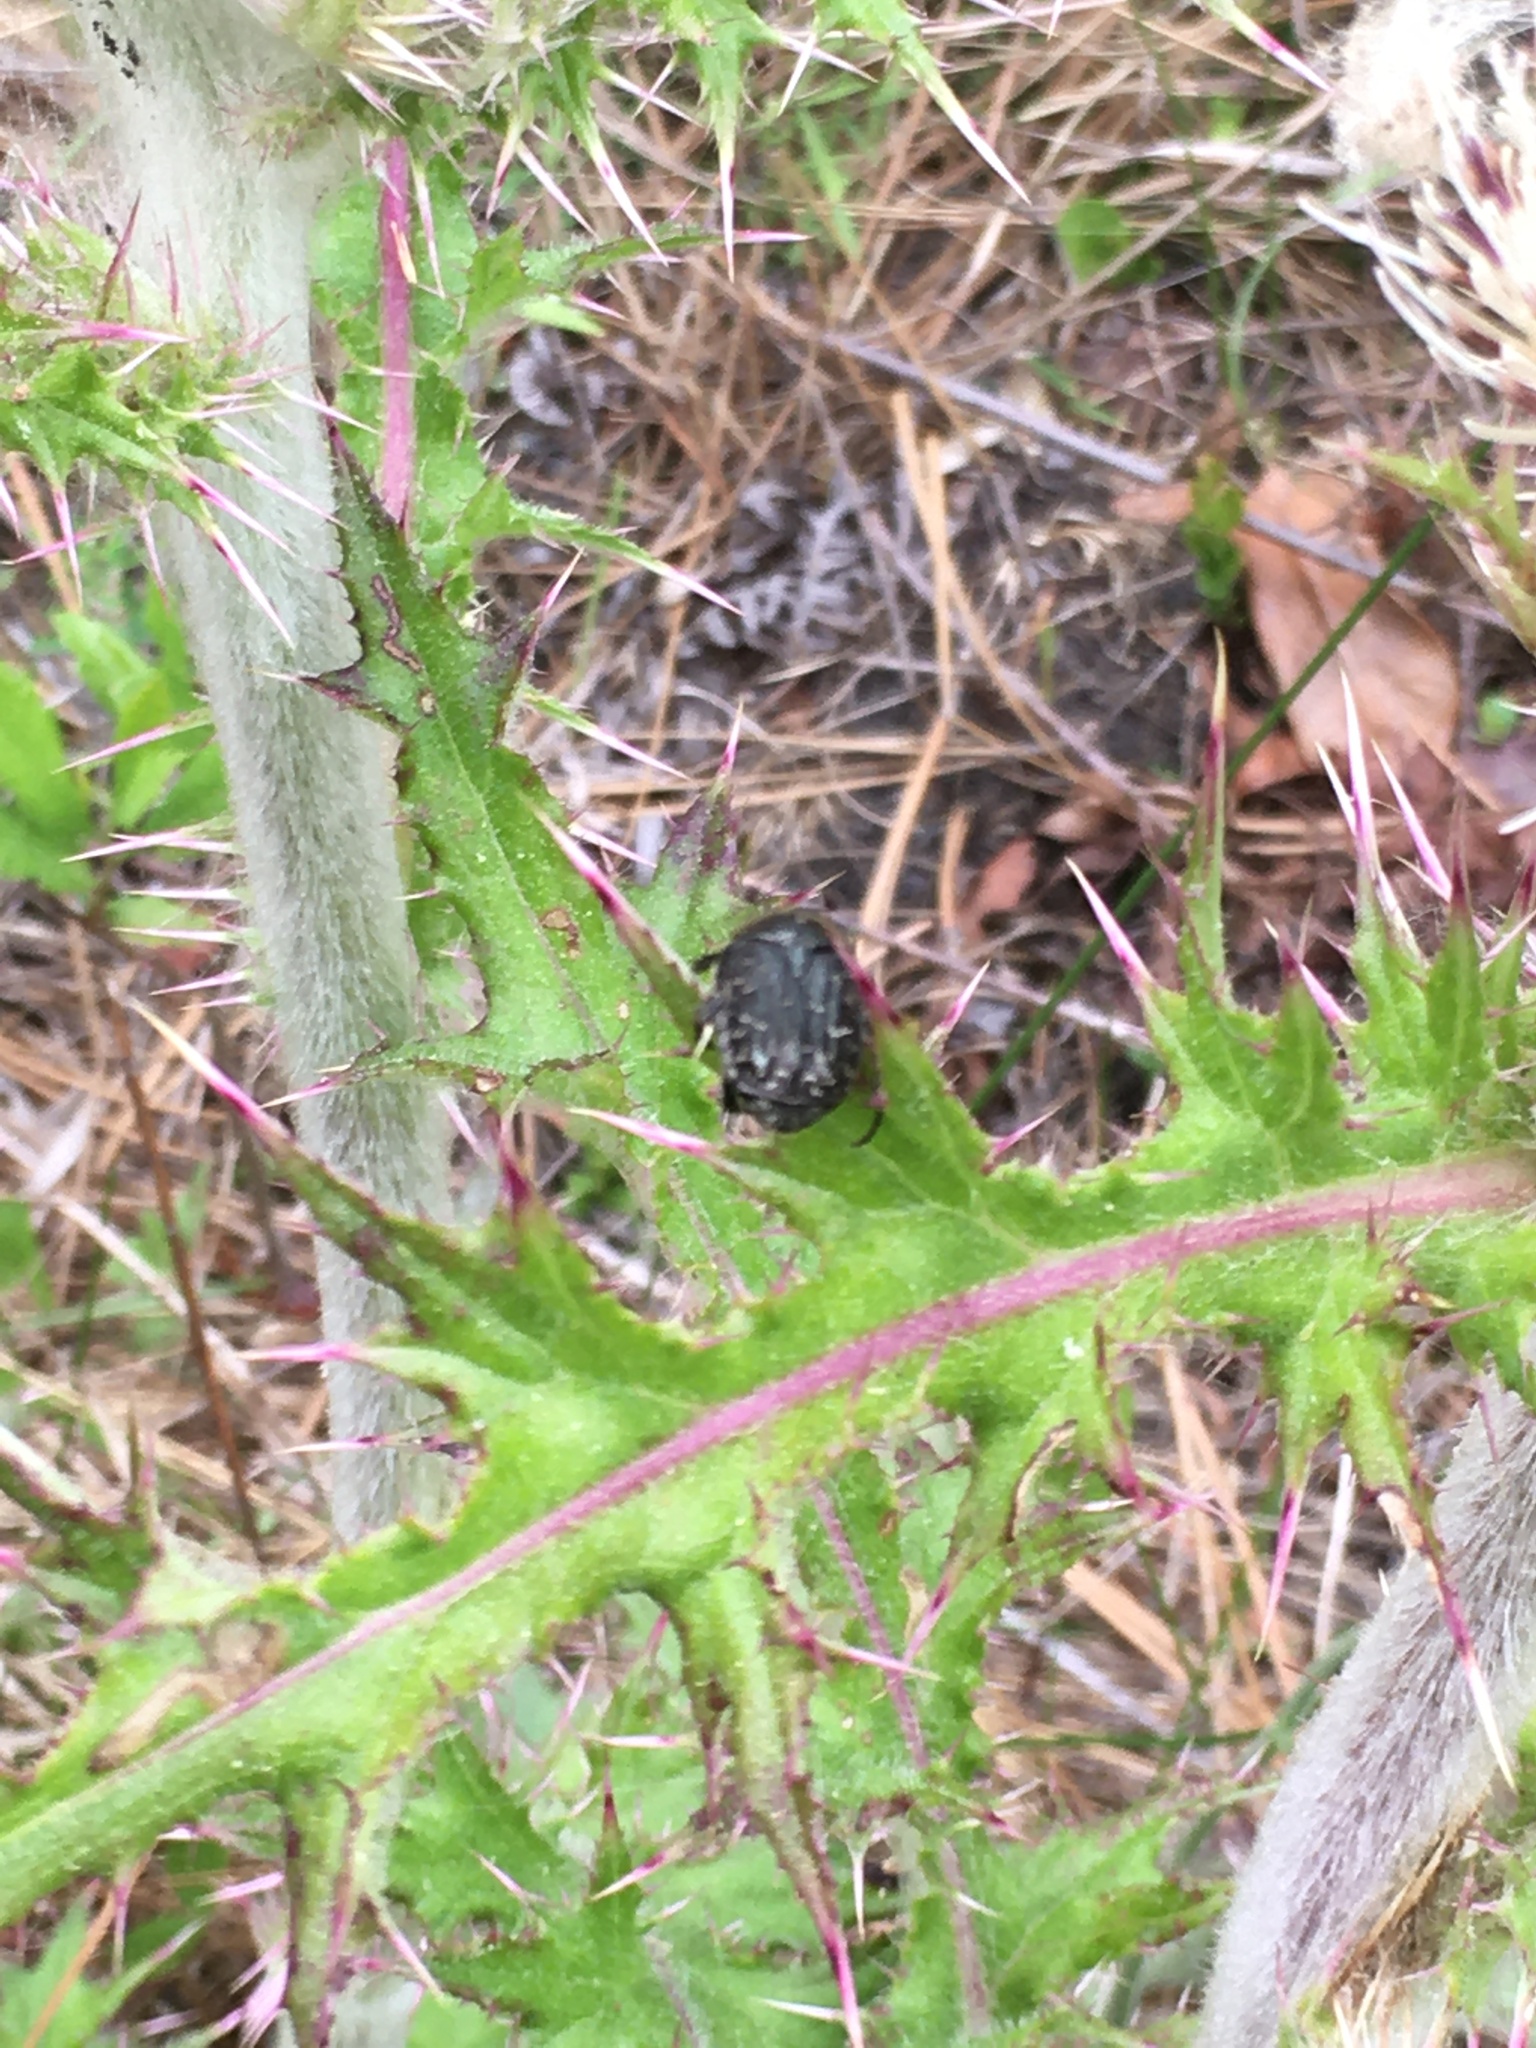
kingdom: Animalia
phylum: Arthropoda
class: Insecta
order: Coleoptera
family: Scarabaeidae
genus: Euphoria
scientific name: Euphoria sepulcralis
